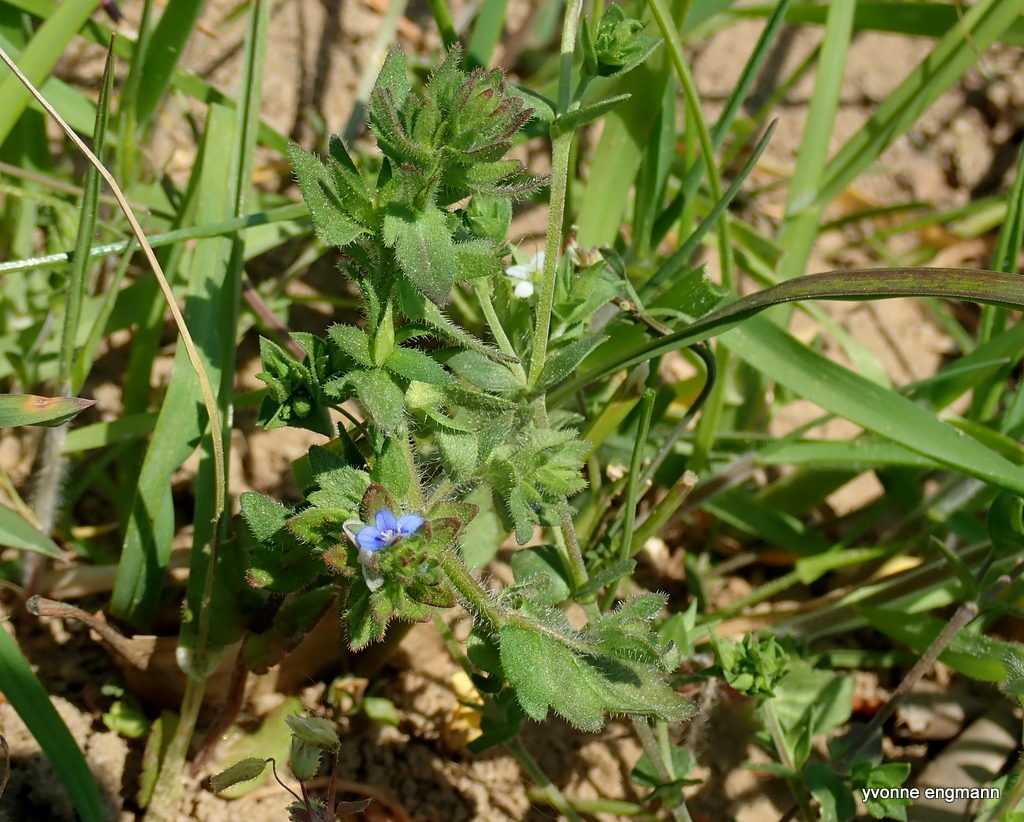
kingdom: Plantae
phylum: Tracheophyta
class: Magnoliopsida
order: Lamiales
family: Plantaginaceae
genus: Veronica
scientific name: Veronica arvensis
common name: Corn speedwell
